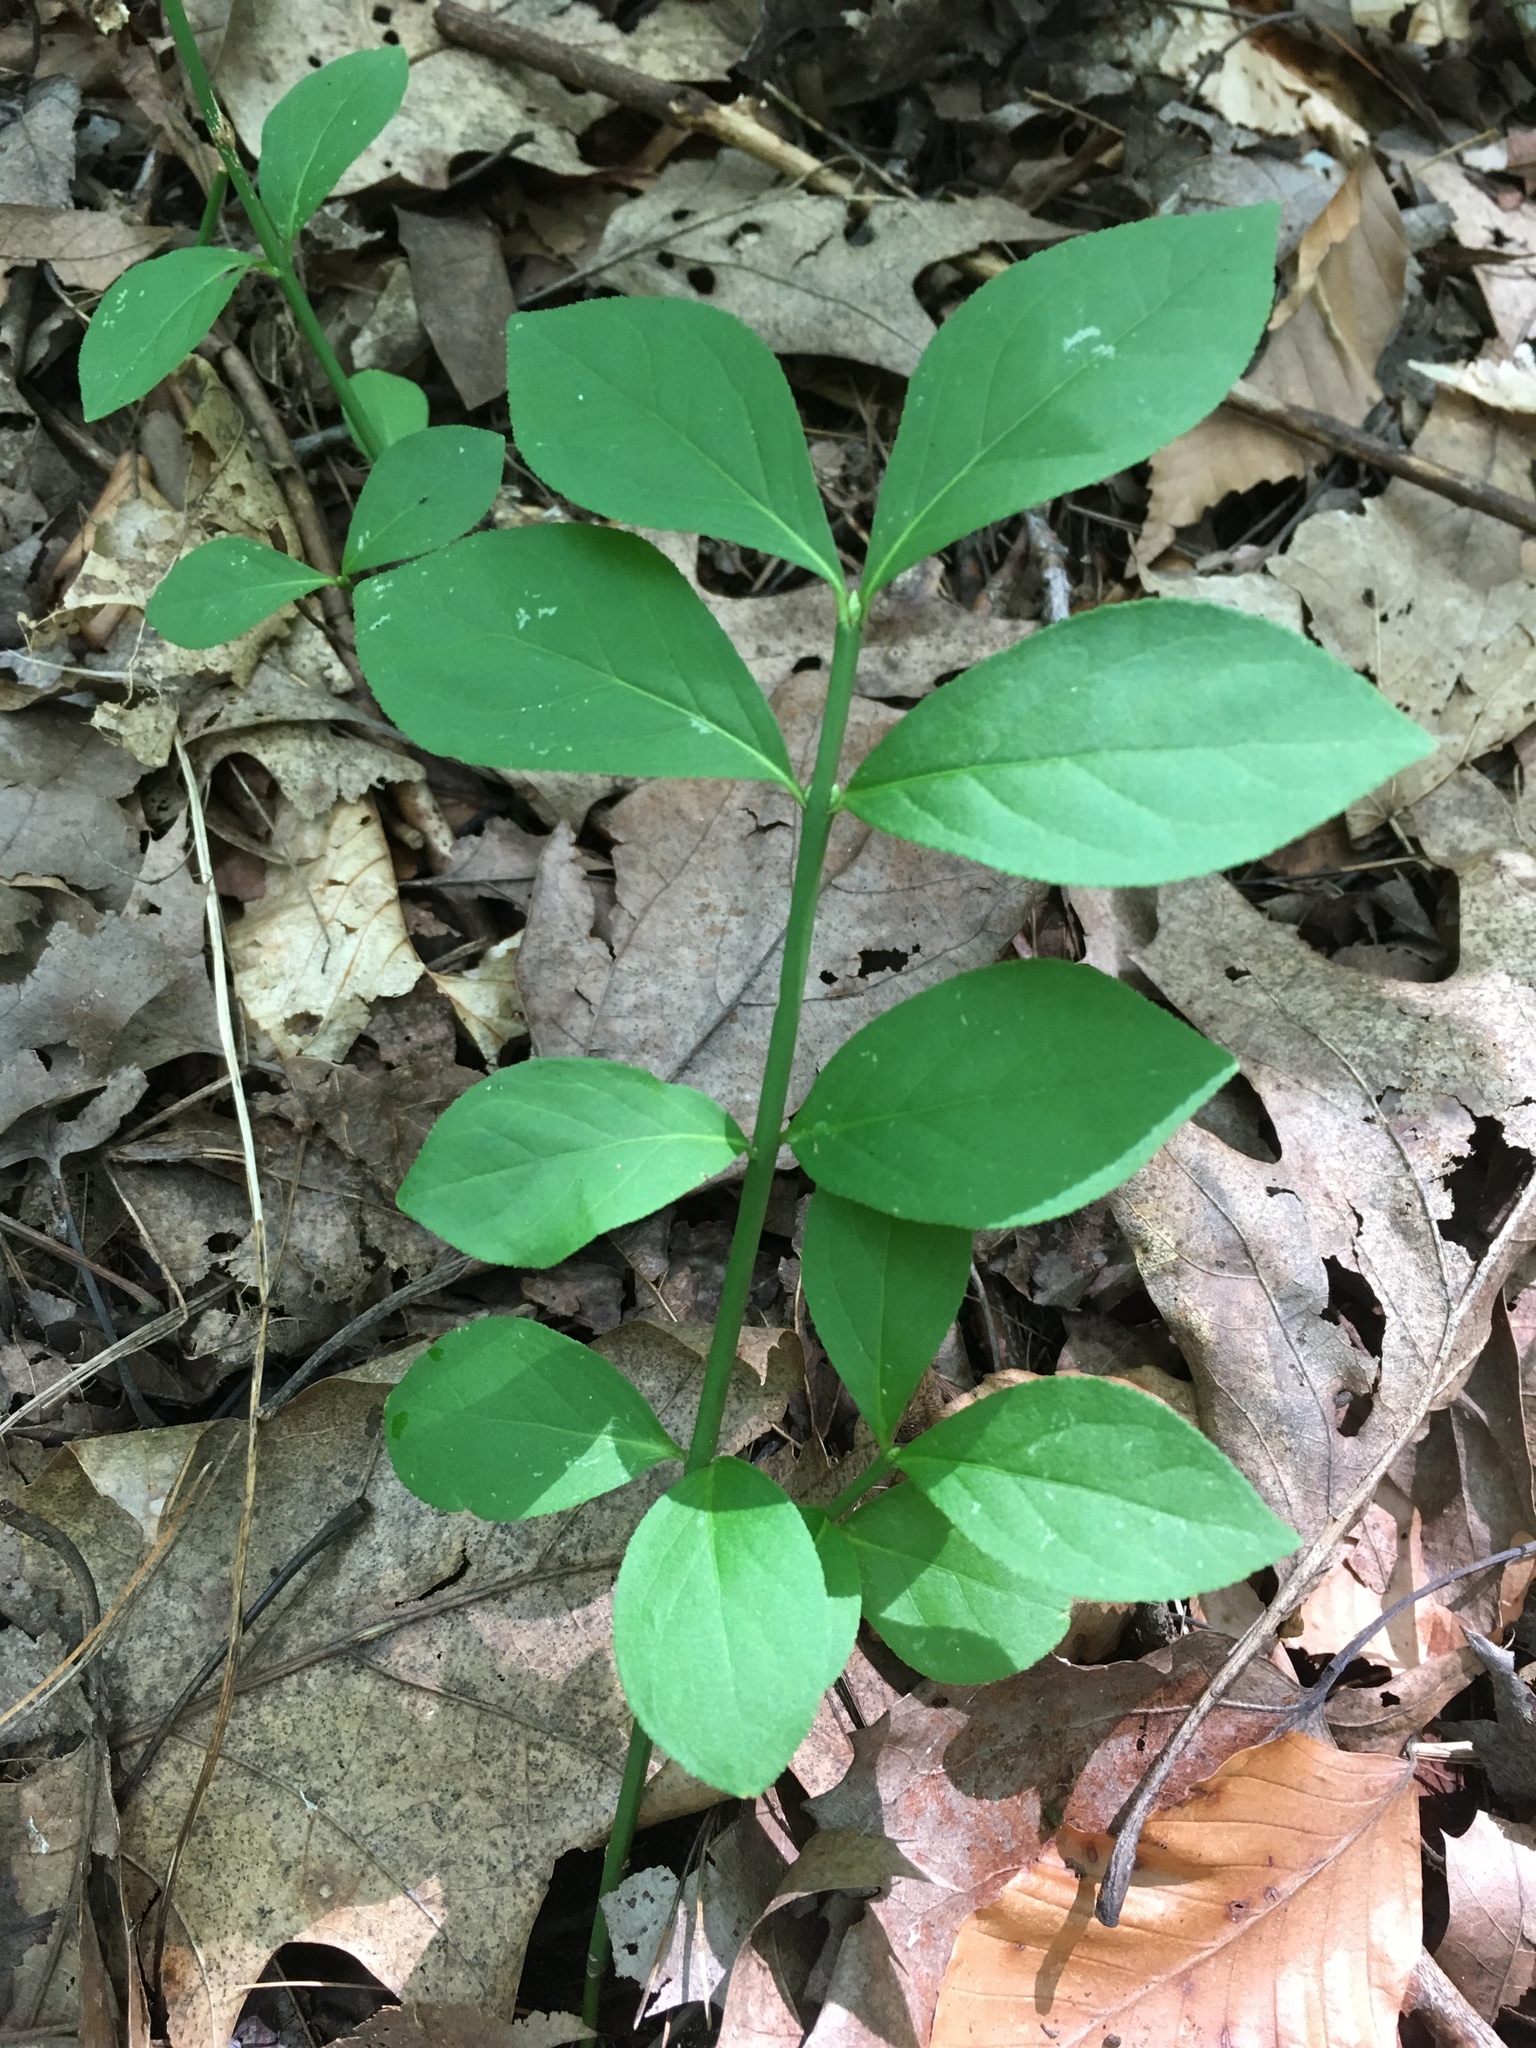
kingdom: Plantae
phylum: Tracheophyta
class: Magnoliopsida
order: Celastrales
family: Celastraceae
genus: Euonymus
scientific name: Euonymus obovatus
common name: Running strawberry-bush
